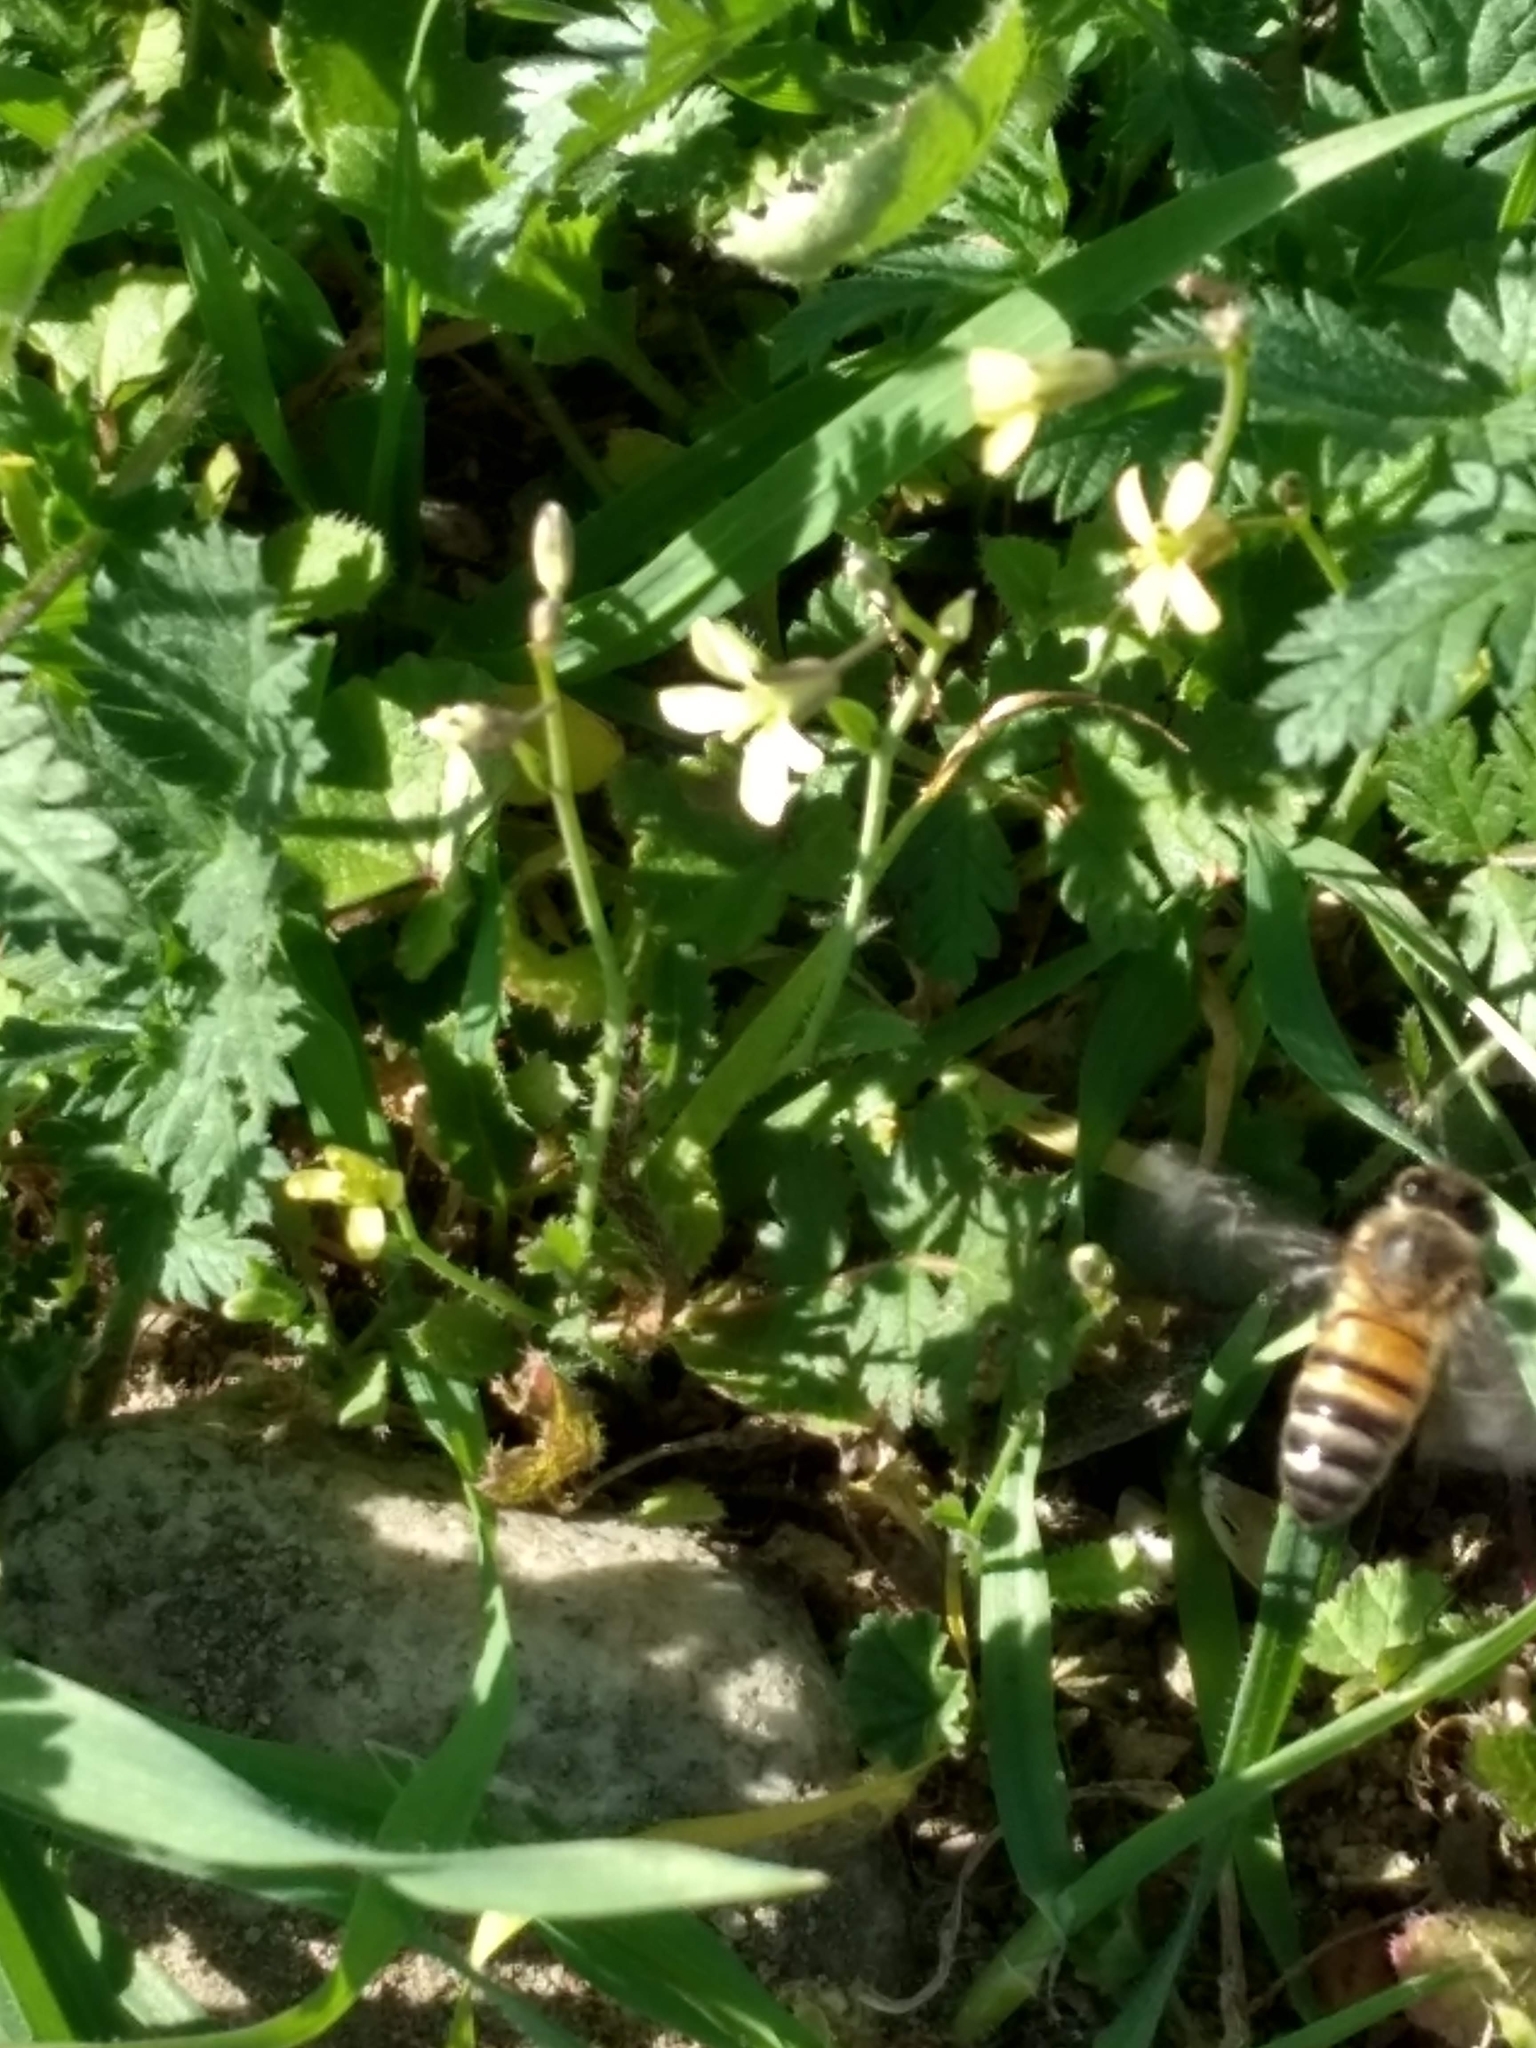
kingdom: Animalia
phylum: Arthropoda
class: Insecta
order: Hymenoptera
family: Apidae
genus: Apis
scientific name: Apis mellifera
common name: Honey bee
